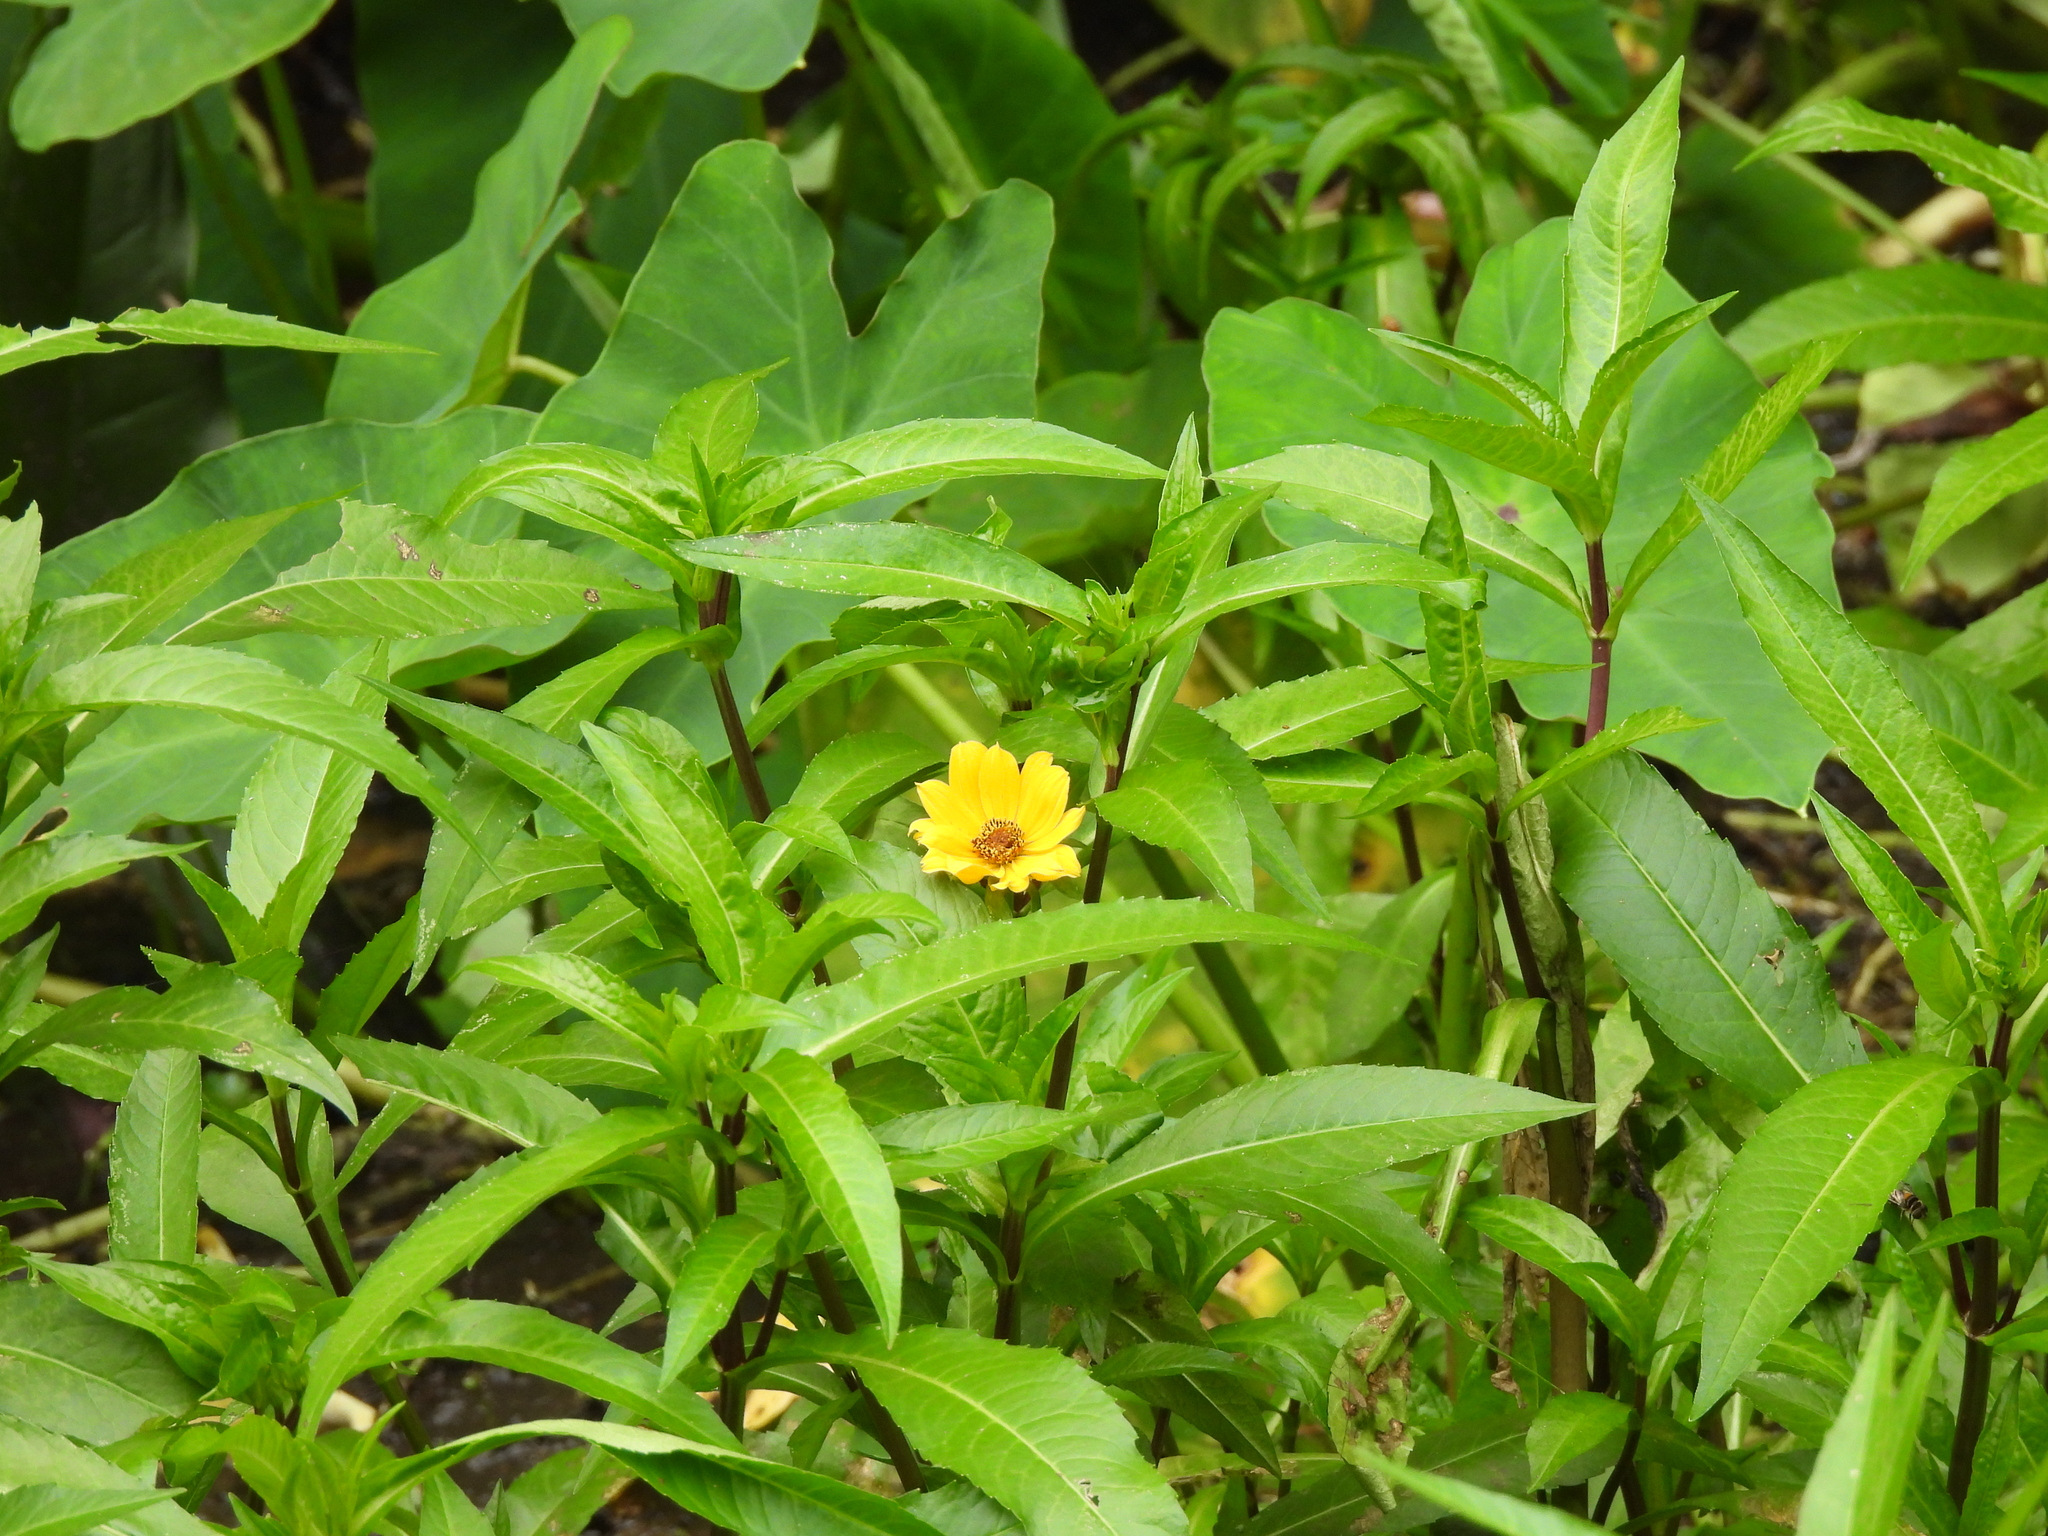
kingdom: Plantae
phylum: Tracheophyta
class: Magnoliopsida
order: Asterales
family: Asteraceae
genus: Bidens
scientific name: Bidens laevis
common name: Larger bur-marigold
